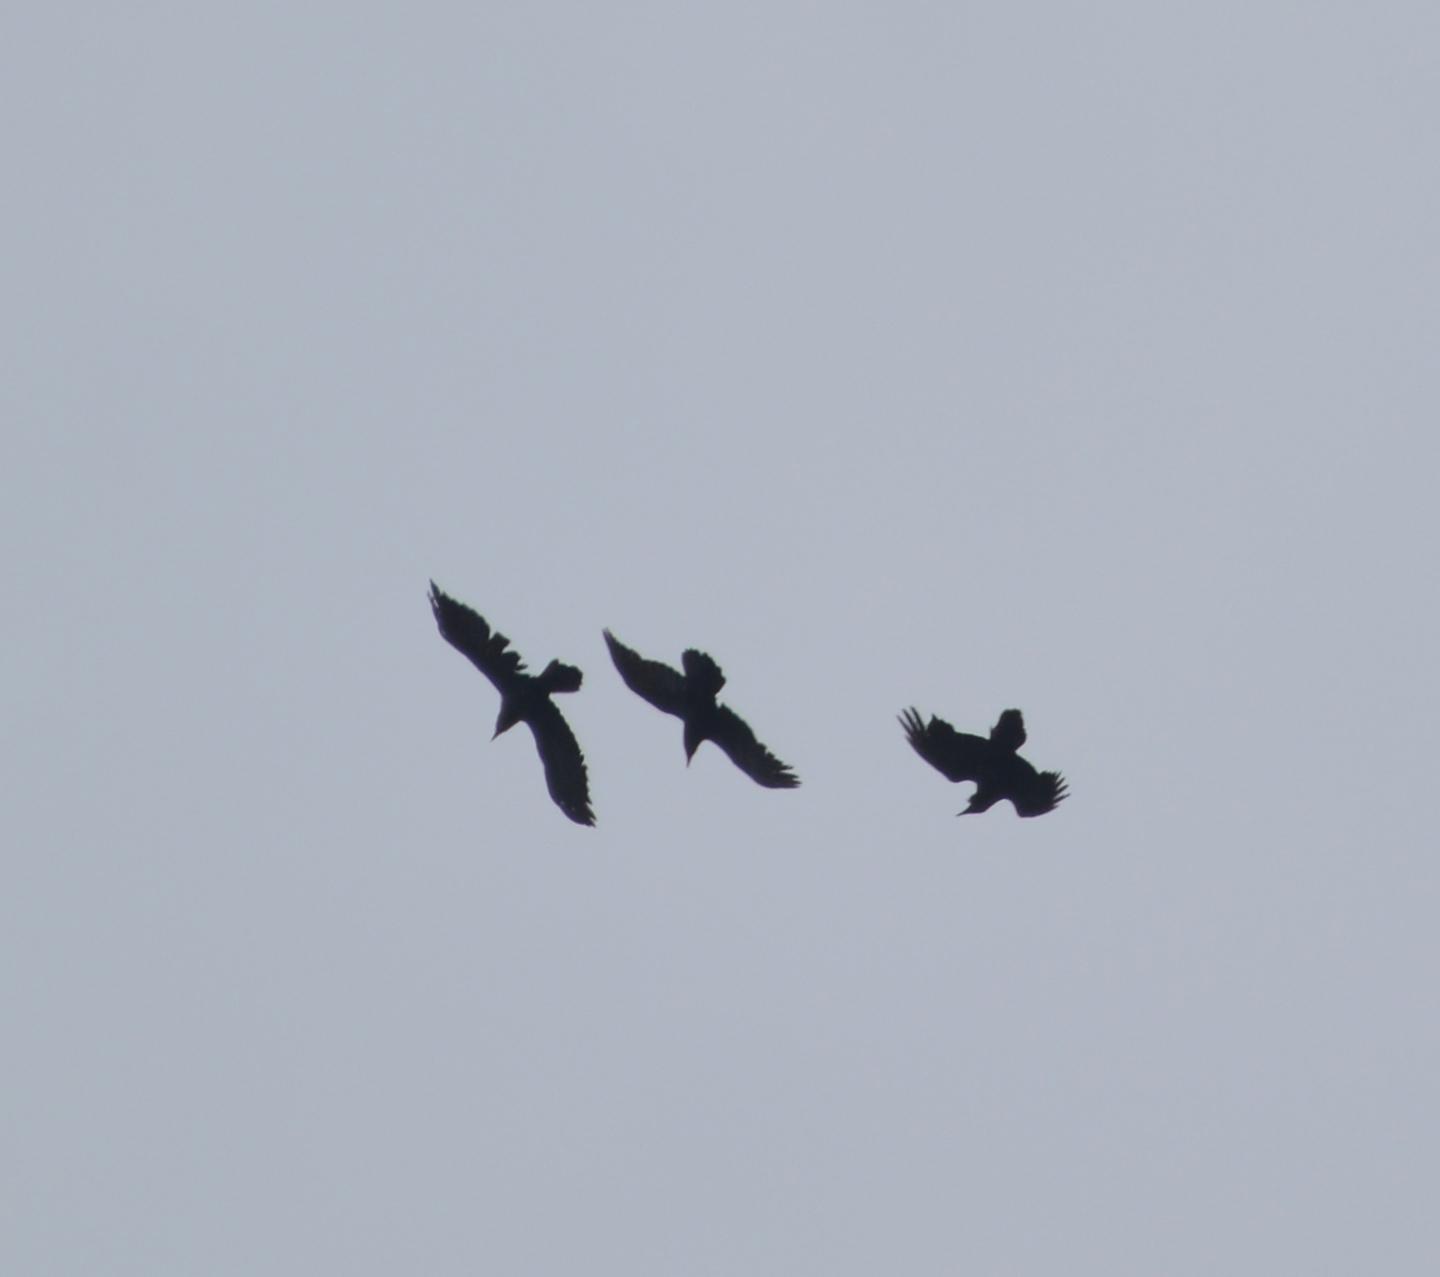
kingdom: Animalia
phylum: Chordata
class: Aves
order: Passeriformes
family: Corvidae
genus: Corvus
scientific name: Corvus corax
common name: Common raven
